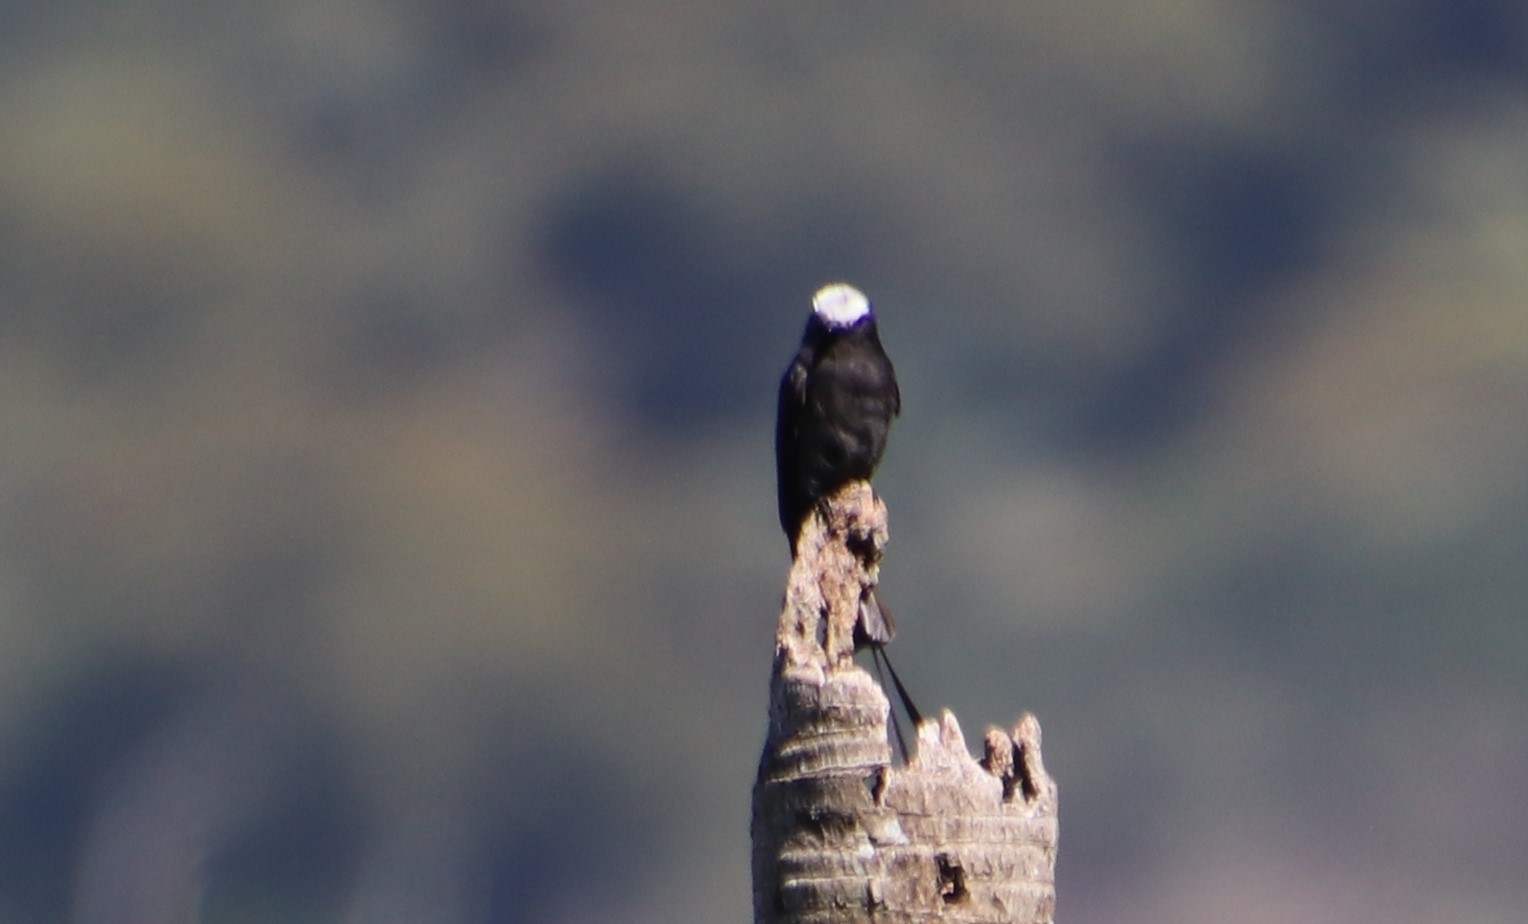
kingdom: Animalia
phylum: Chordata
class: Aves
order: Passeriformes
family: Tyrannidae
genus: Colonia
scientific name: Colonia colonus
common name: Long-tailed tyrant
